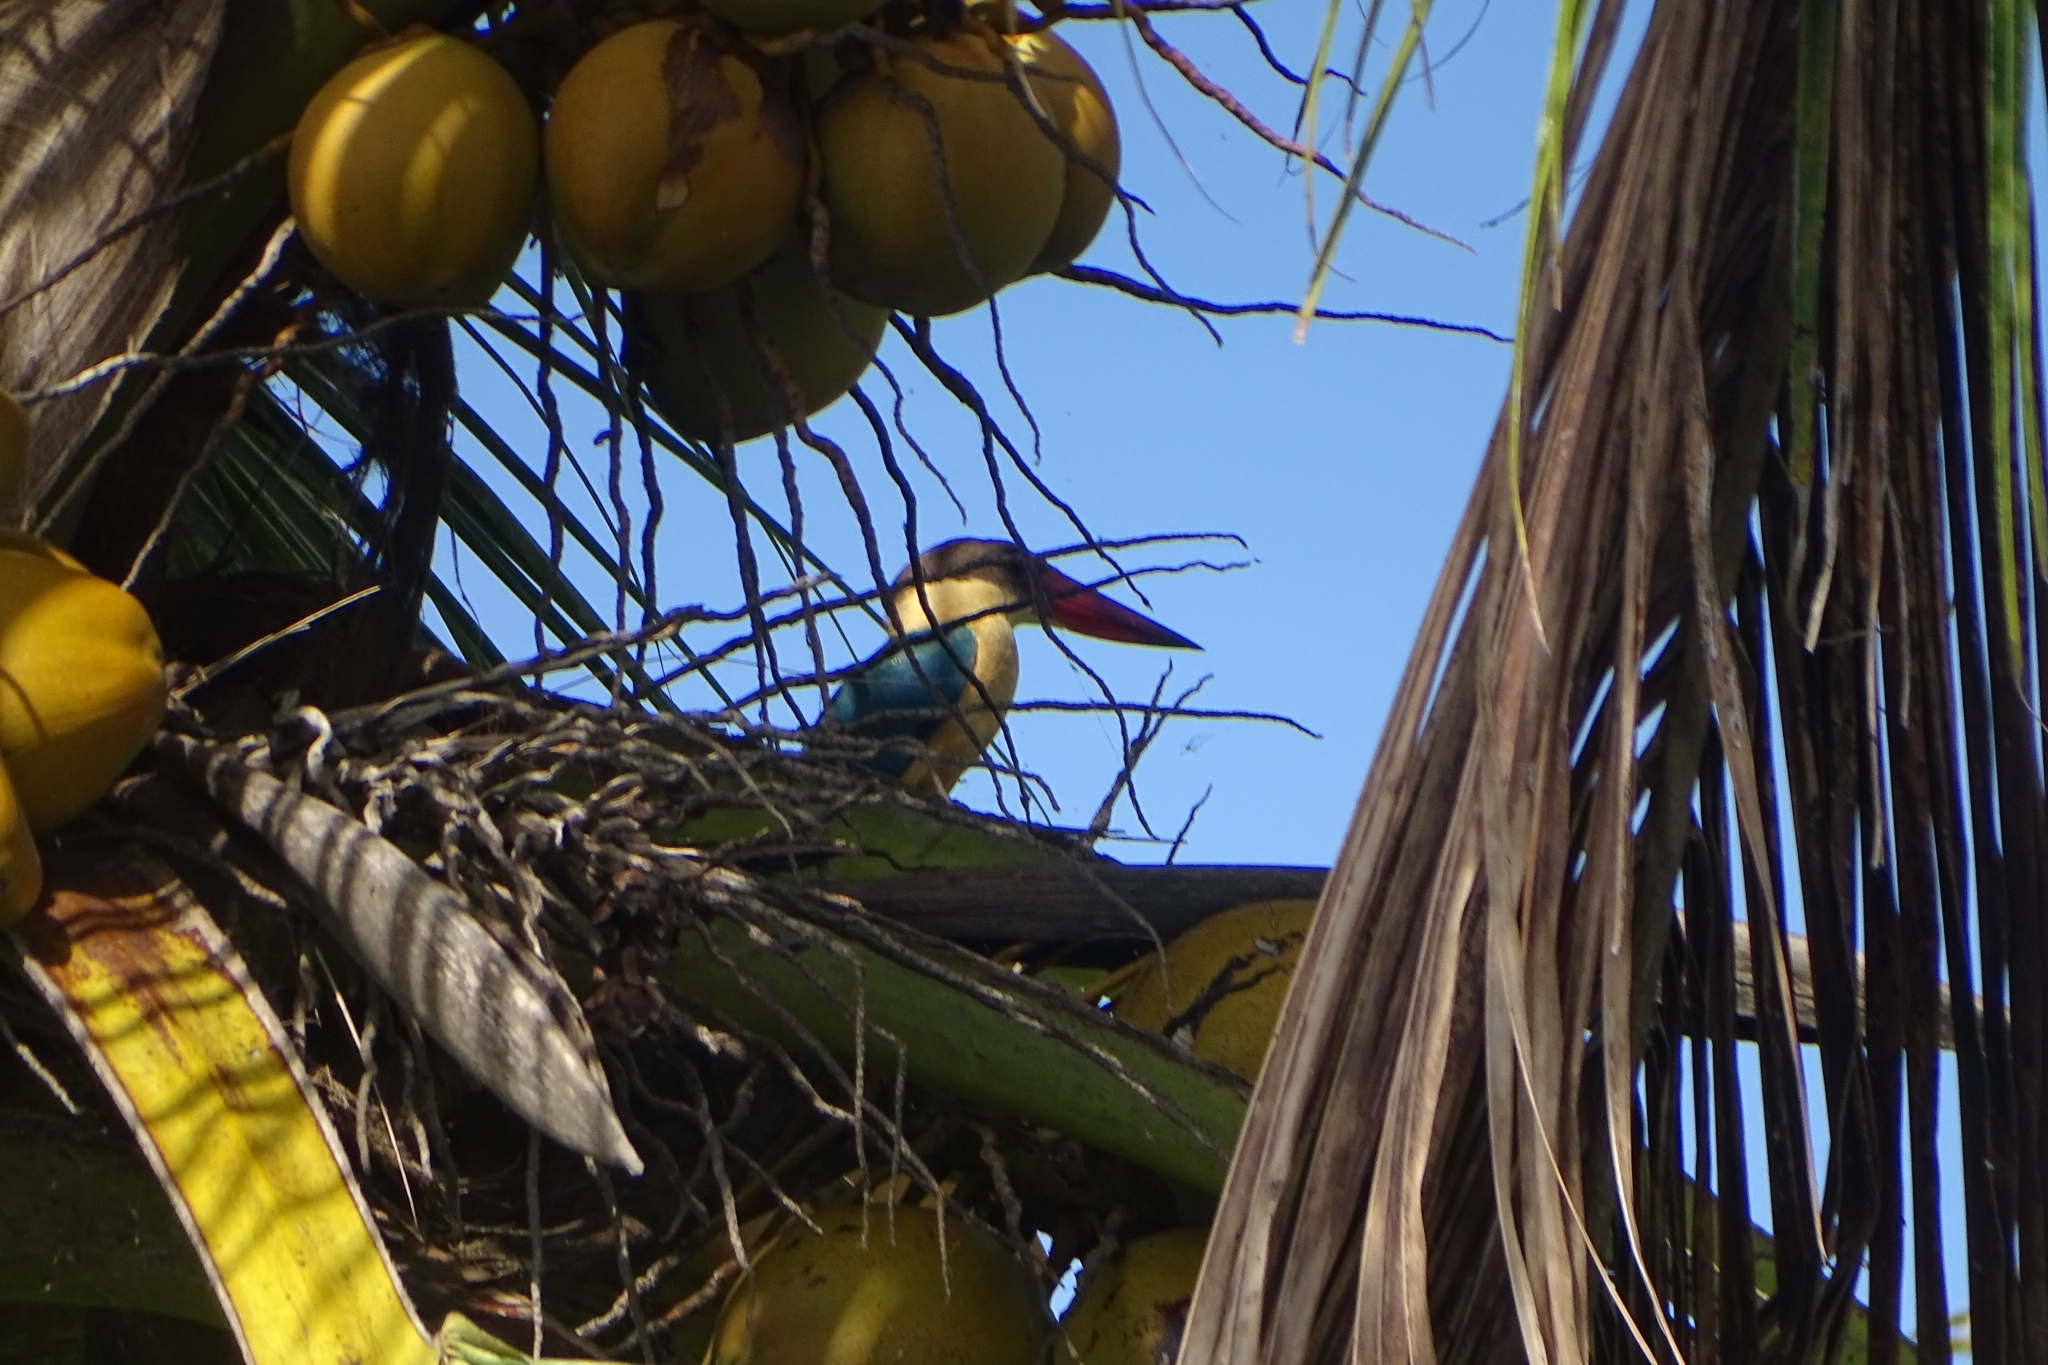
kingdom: Animalia
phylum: Chordata
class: Aves
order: Coraciiformes
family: Alcedinidae
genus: Pelargopsis
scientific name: Pelargopsis capensis
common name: Stork-billed kingfisher
